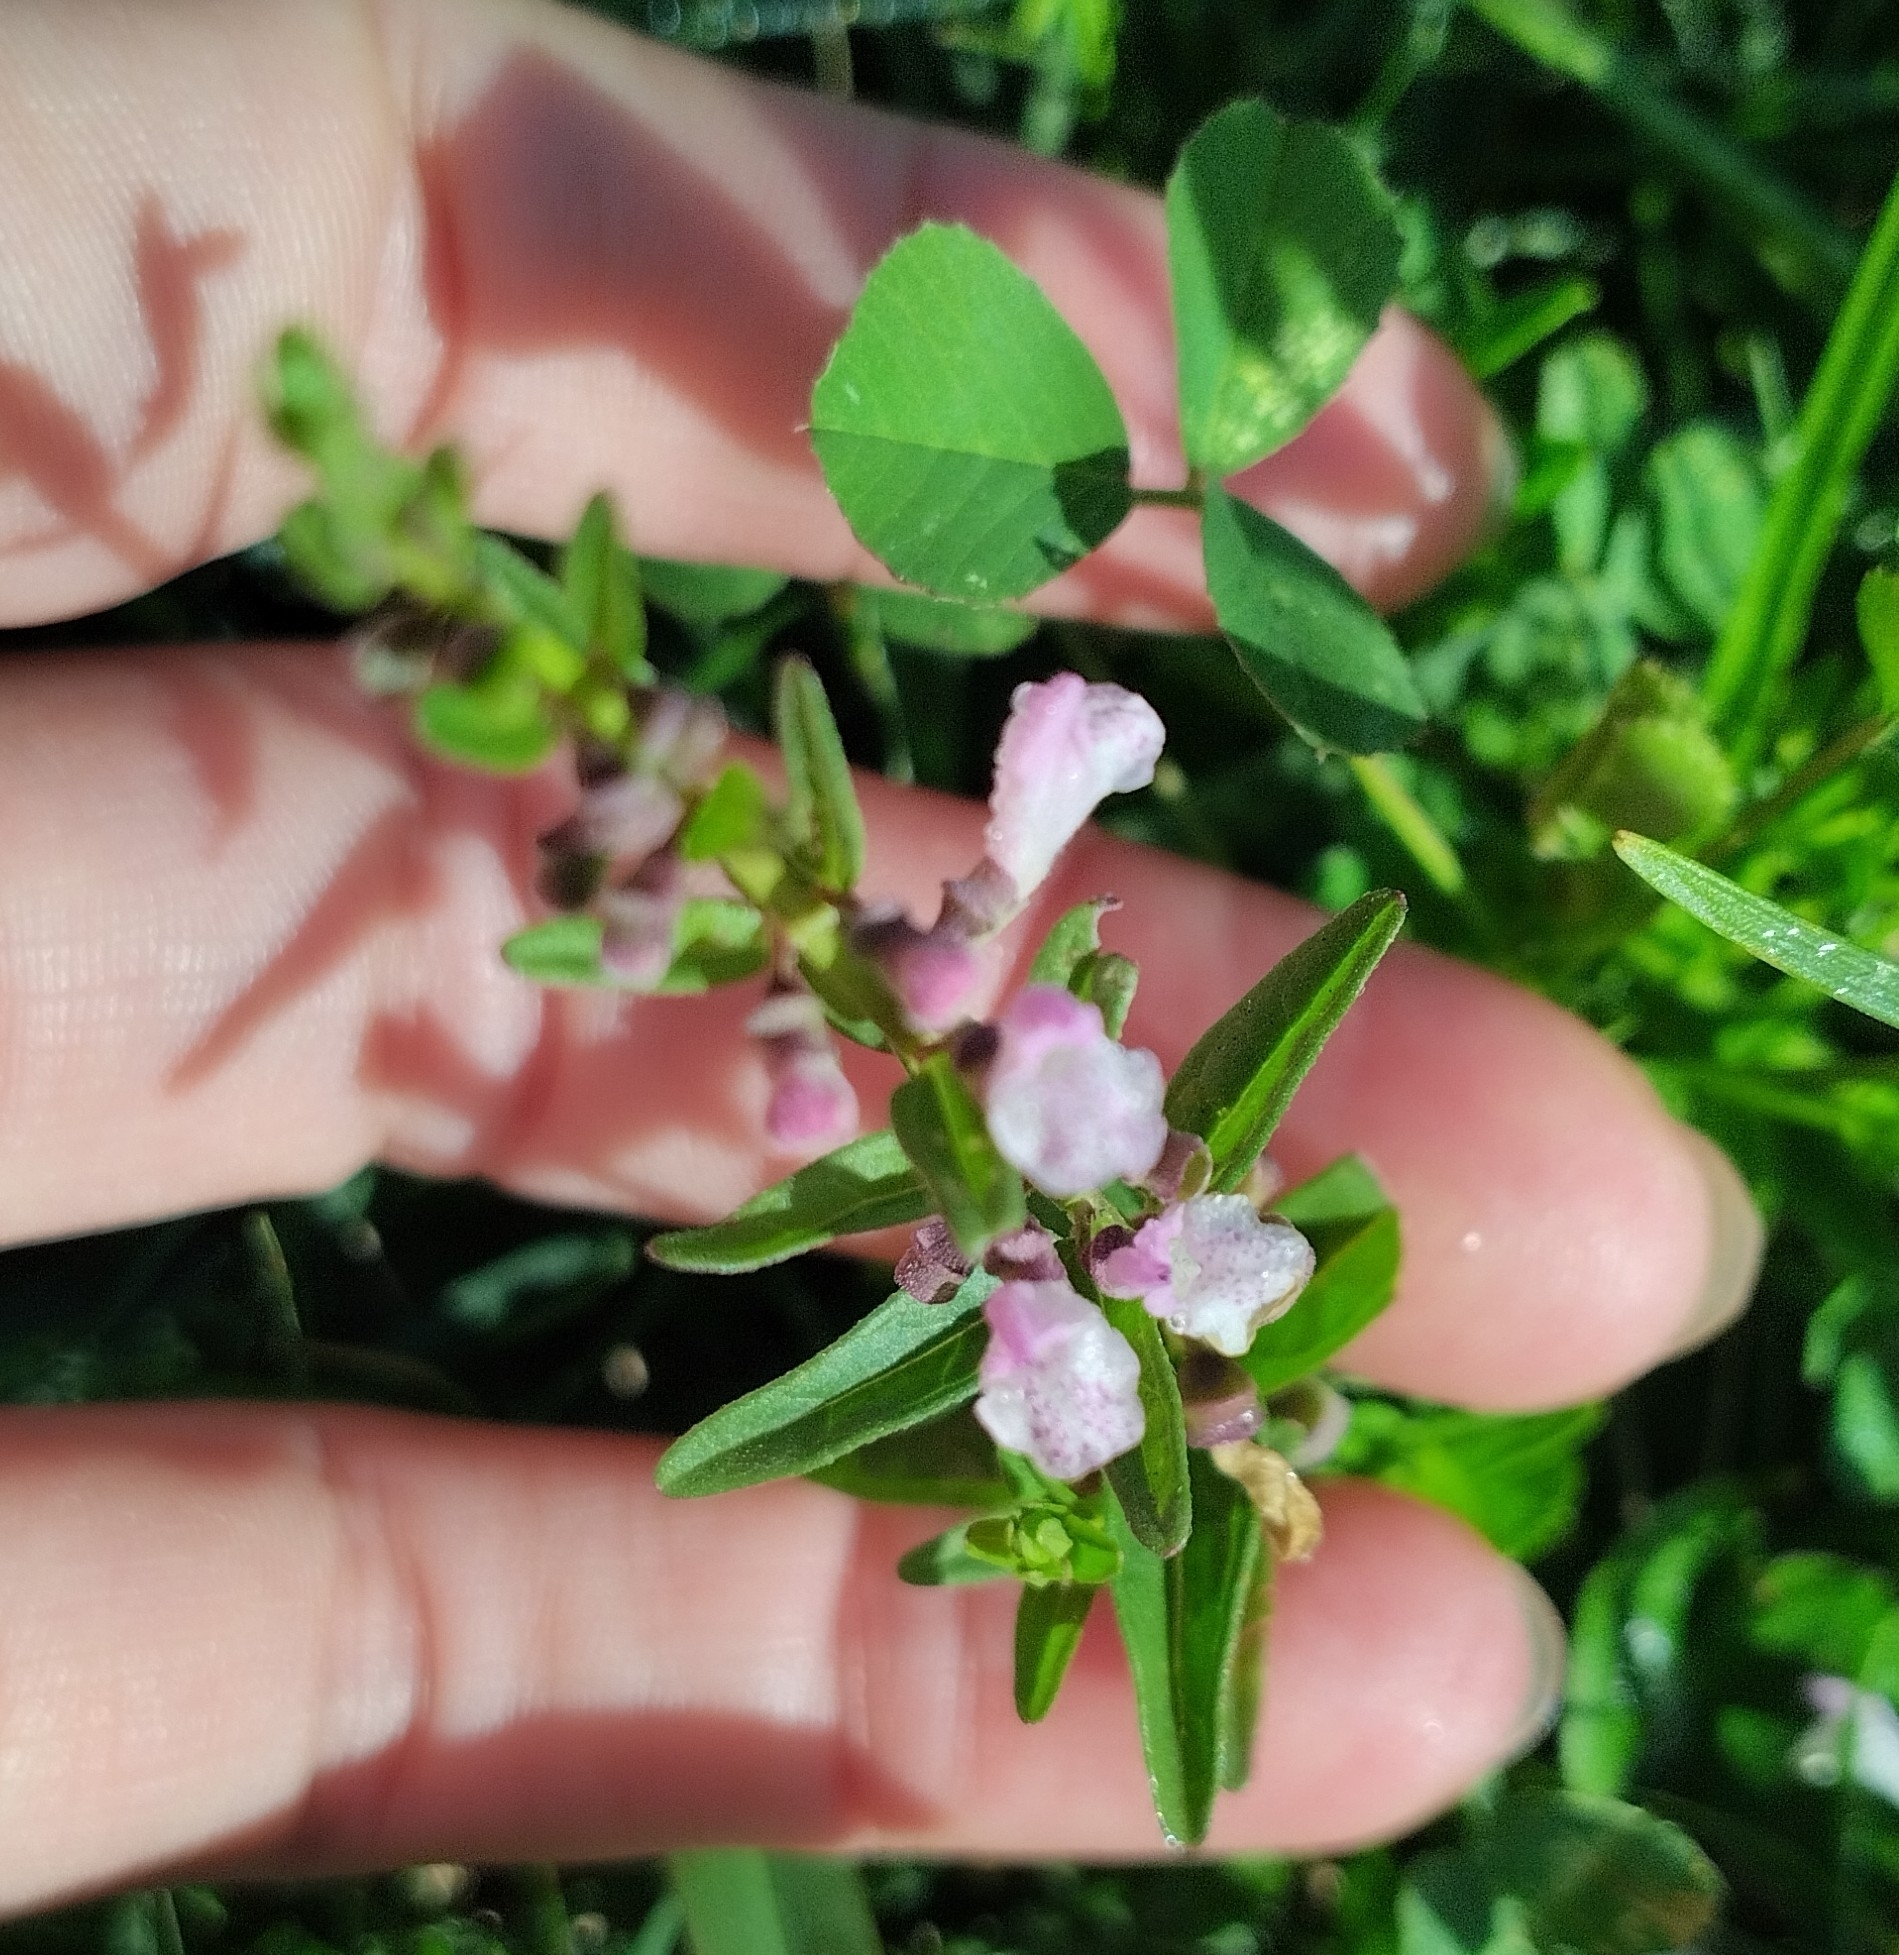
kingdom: Plantae
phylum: Tracheophyta
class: Magnoliopsida
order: Lamiales
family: Lamiaceae
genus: Scutellaria
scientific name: Scutellaria racemosa
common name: South american skullcap
